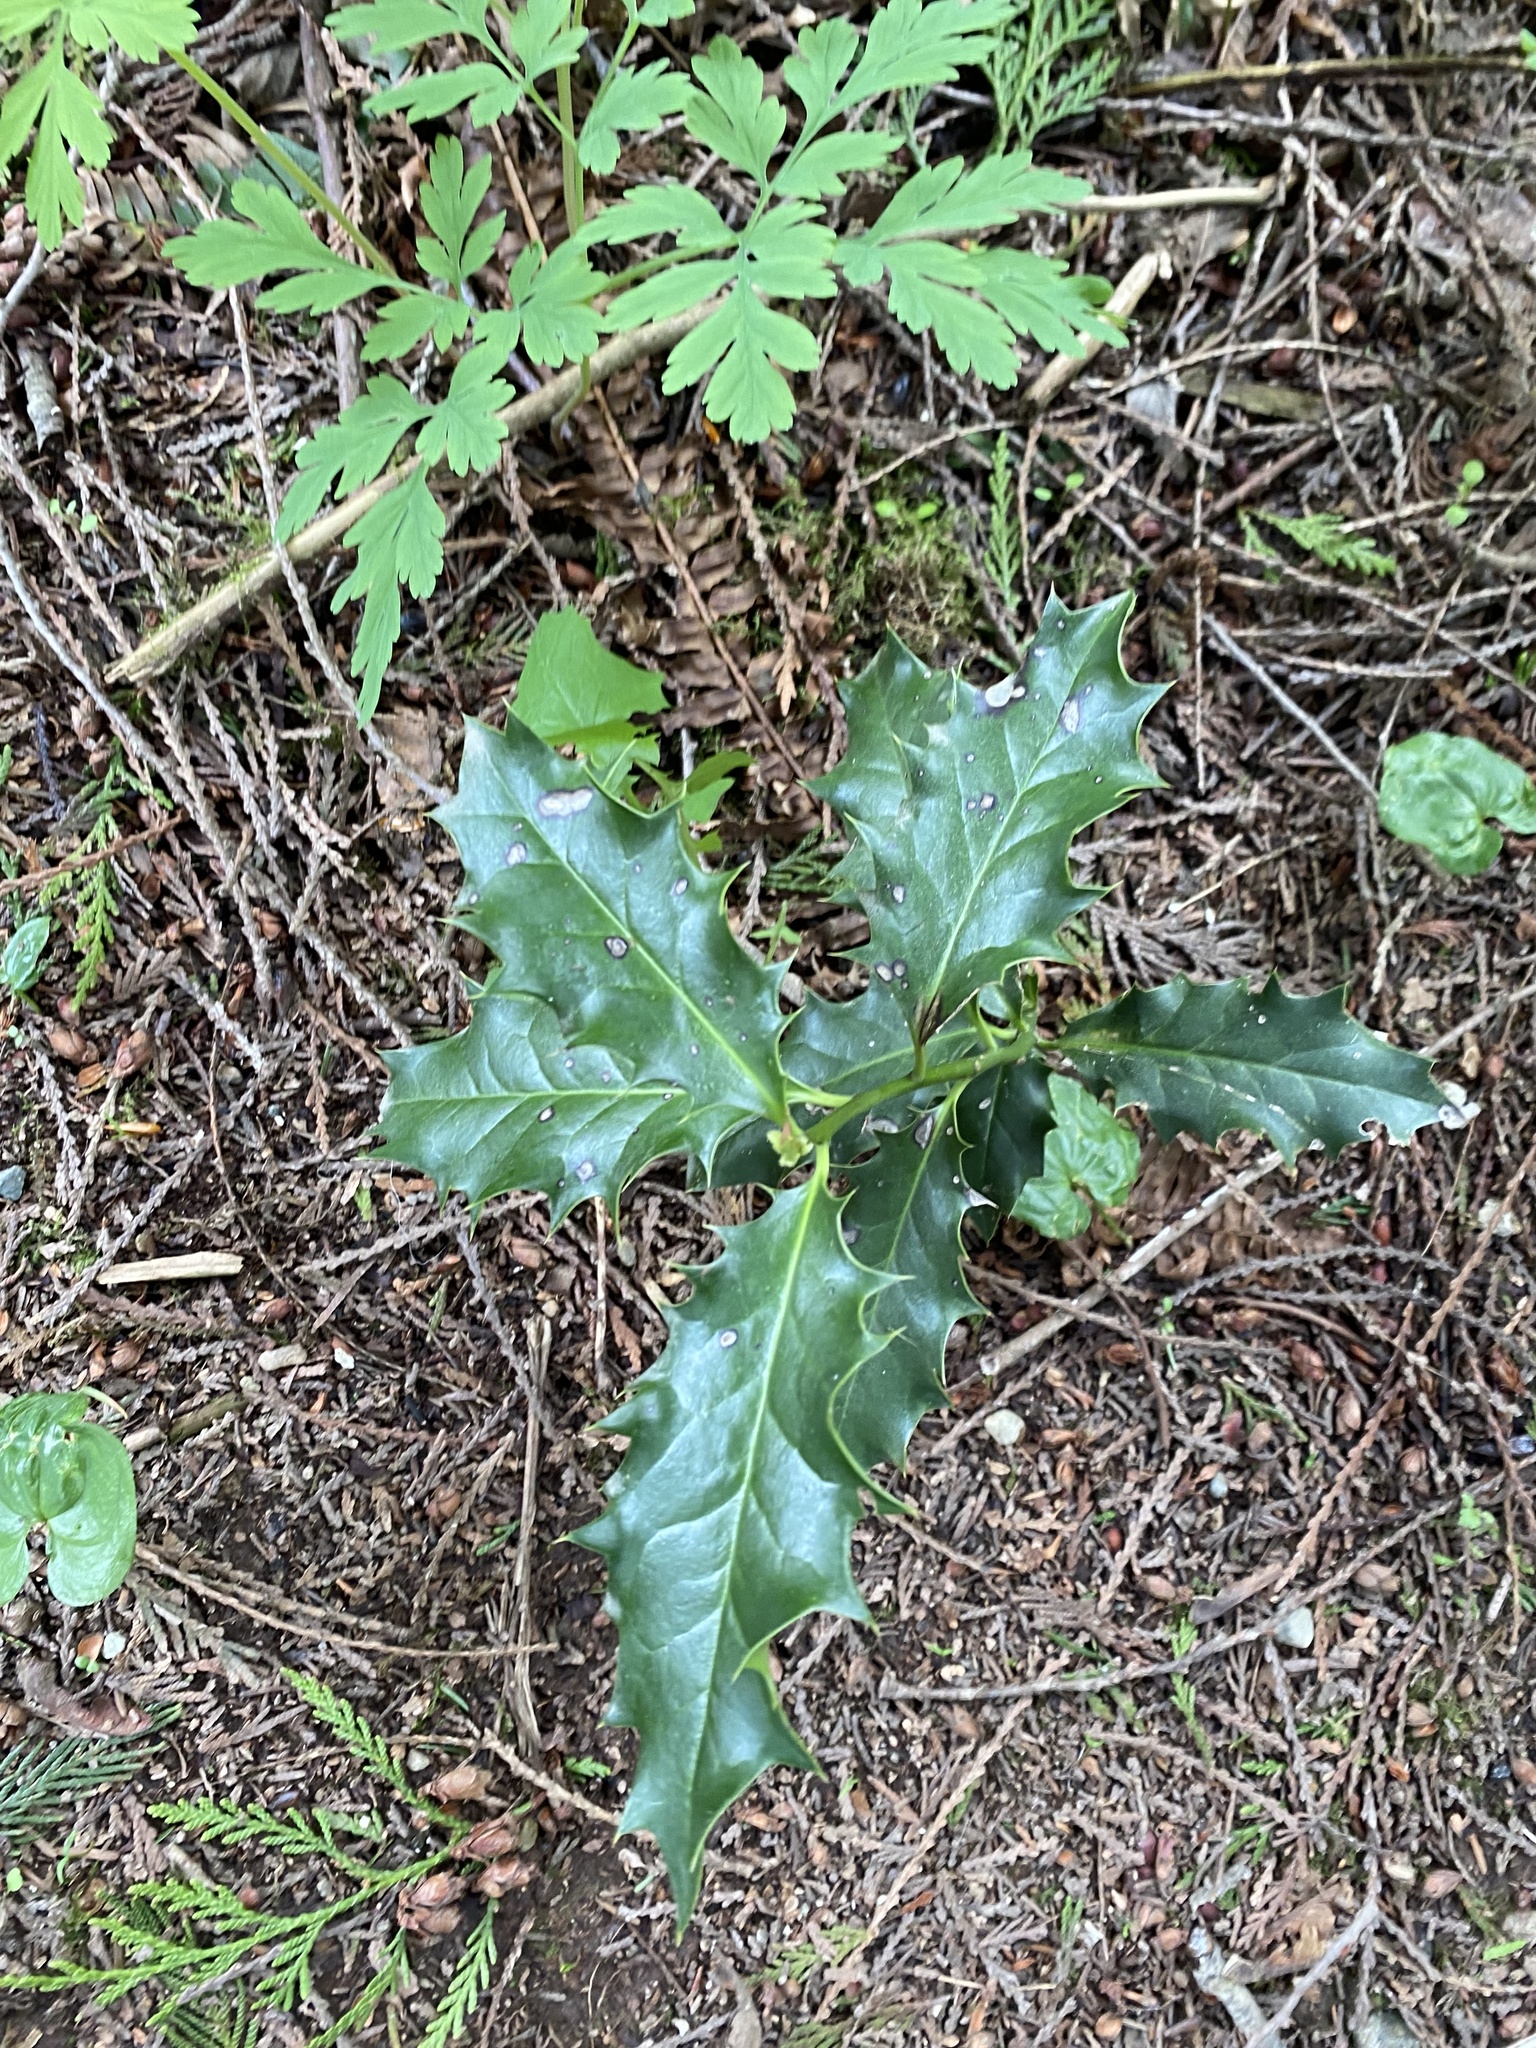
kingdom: Plantae
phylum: Tracheophyta
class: Magnoliopsida
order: Aquifoliales
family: Aquifoliaceae
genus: Ilex
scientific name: Ilex aquifolium
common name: English holly
